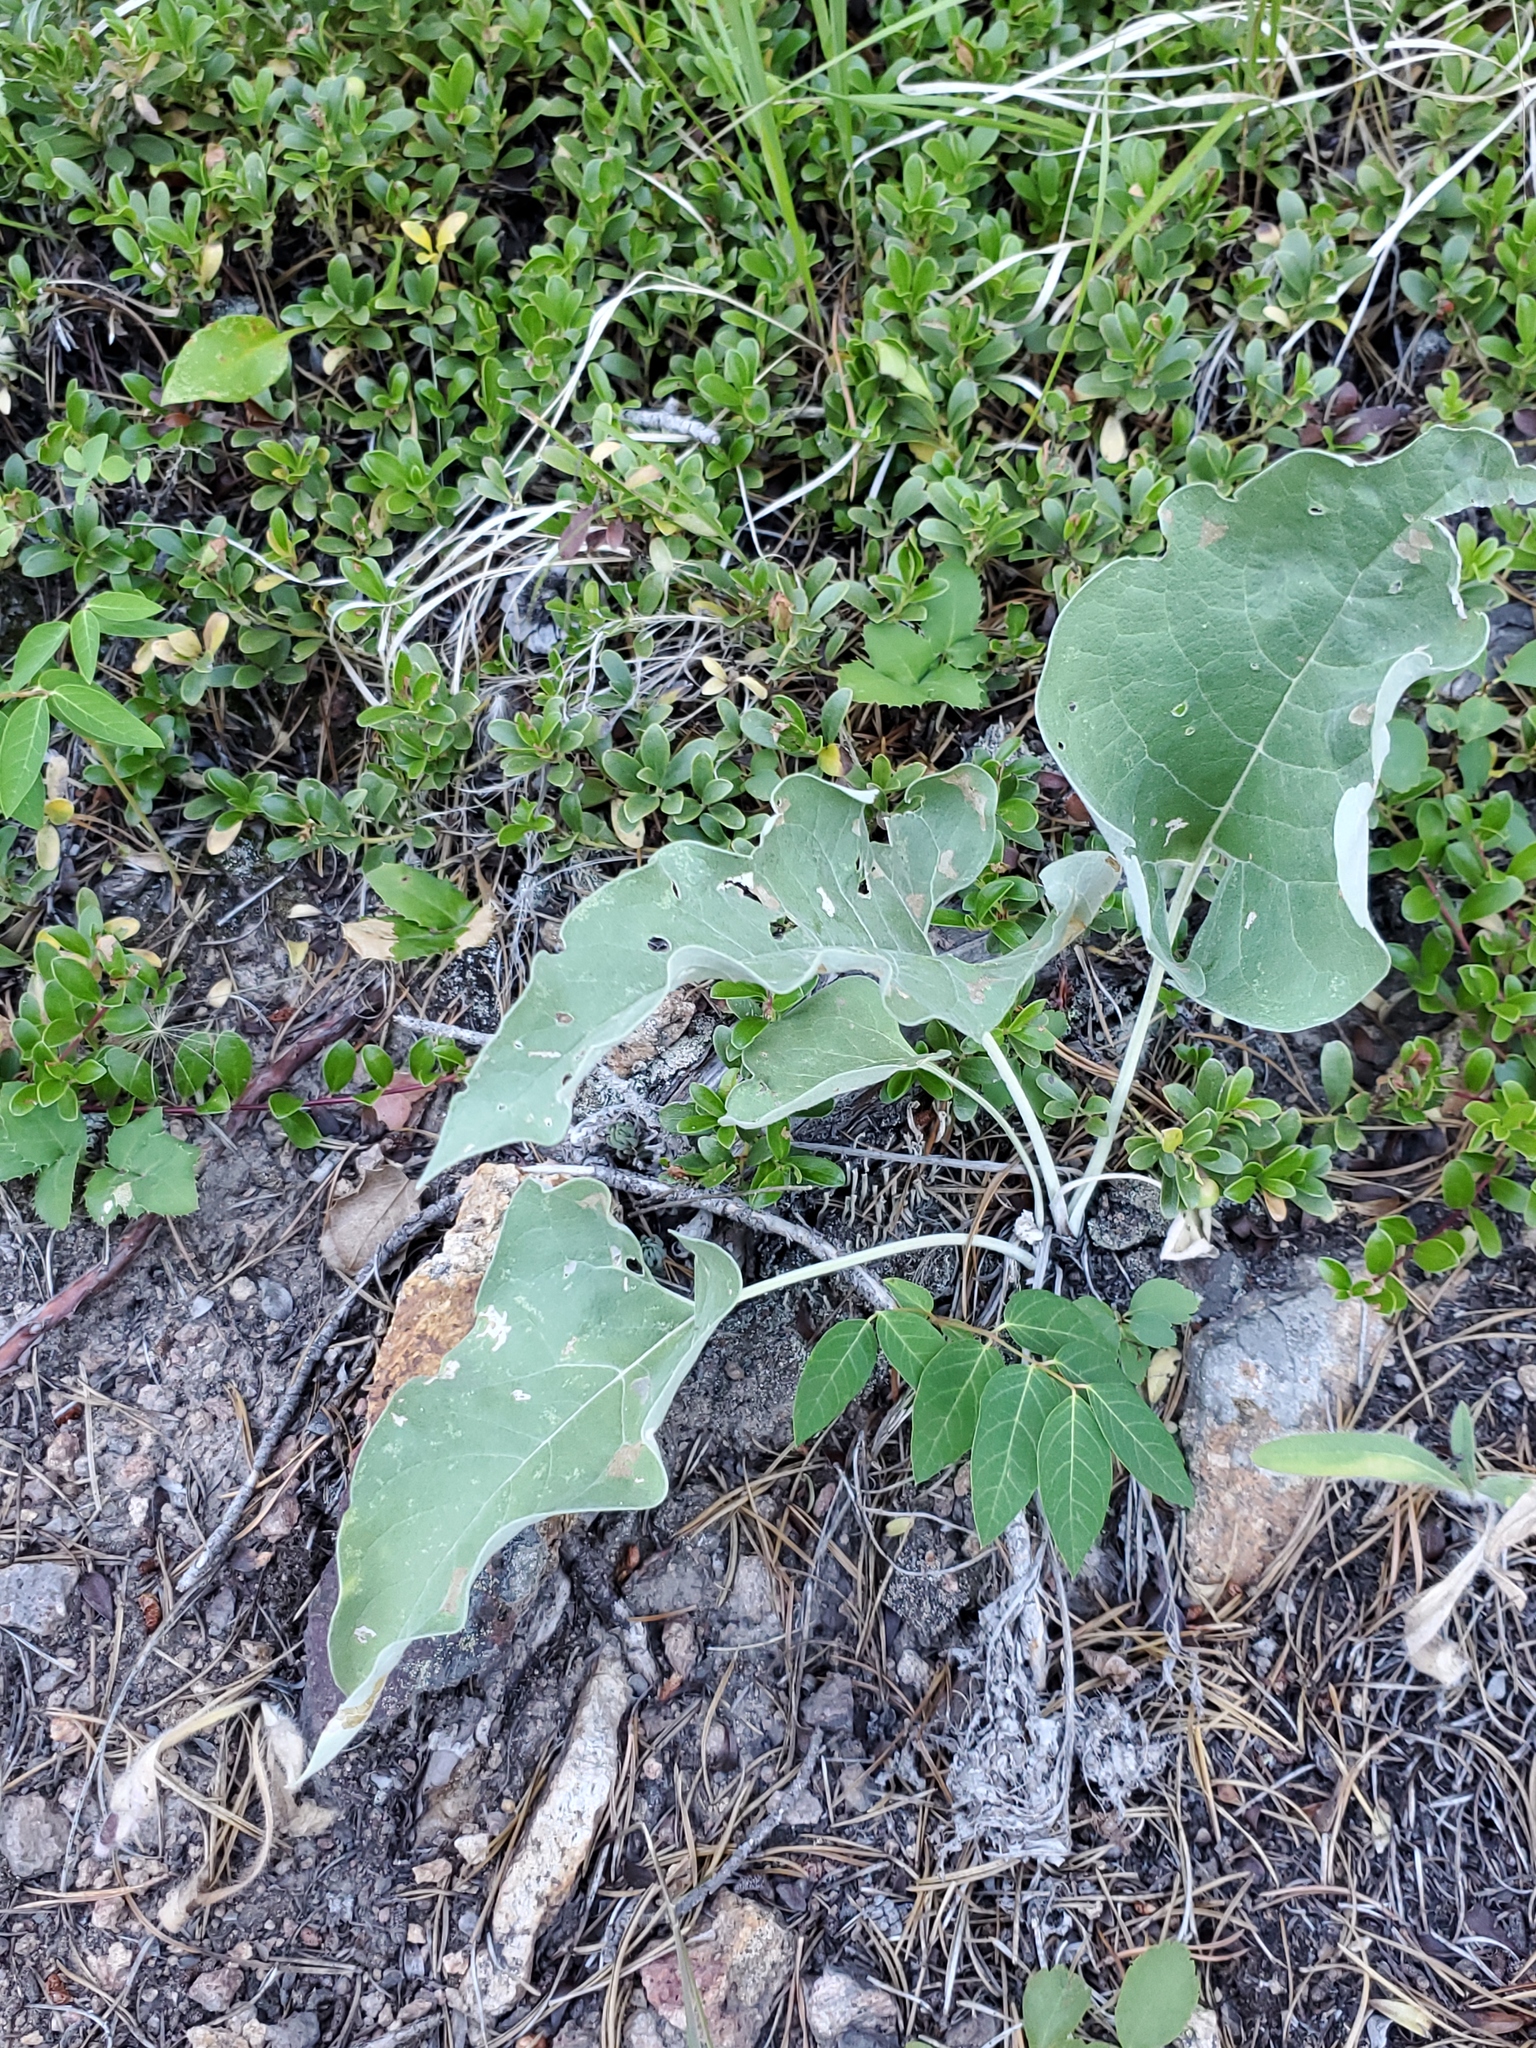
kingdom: Plantae
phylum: Tracheophyta
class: Magnoliopsida
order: Asterales
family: Asteraceae
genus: Wyethia
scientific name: Wyethia sagittata
